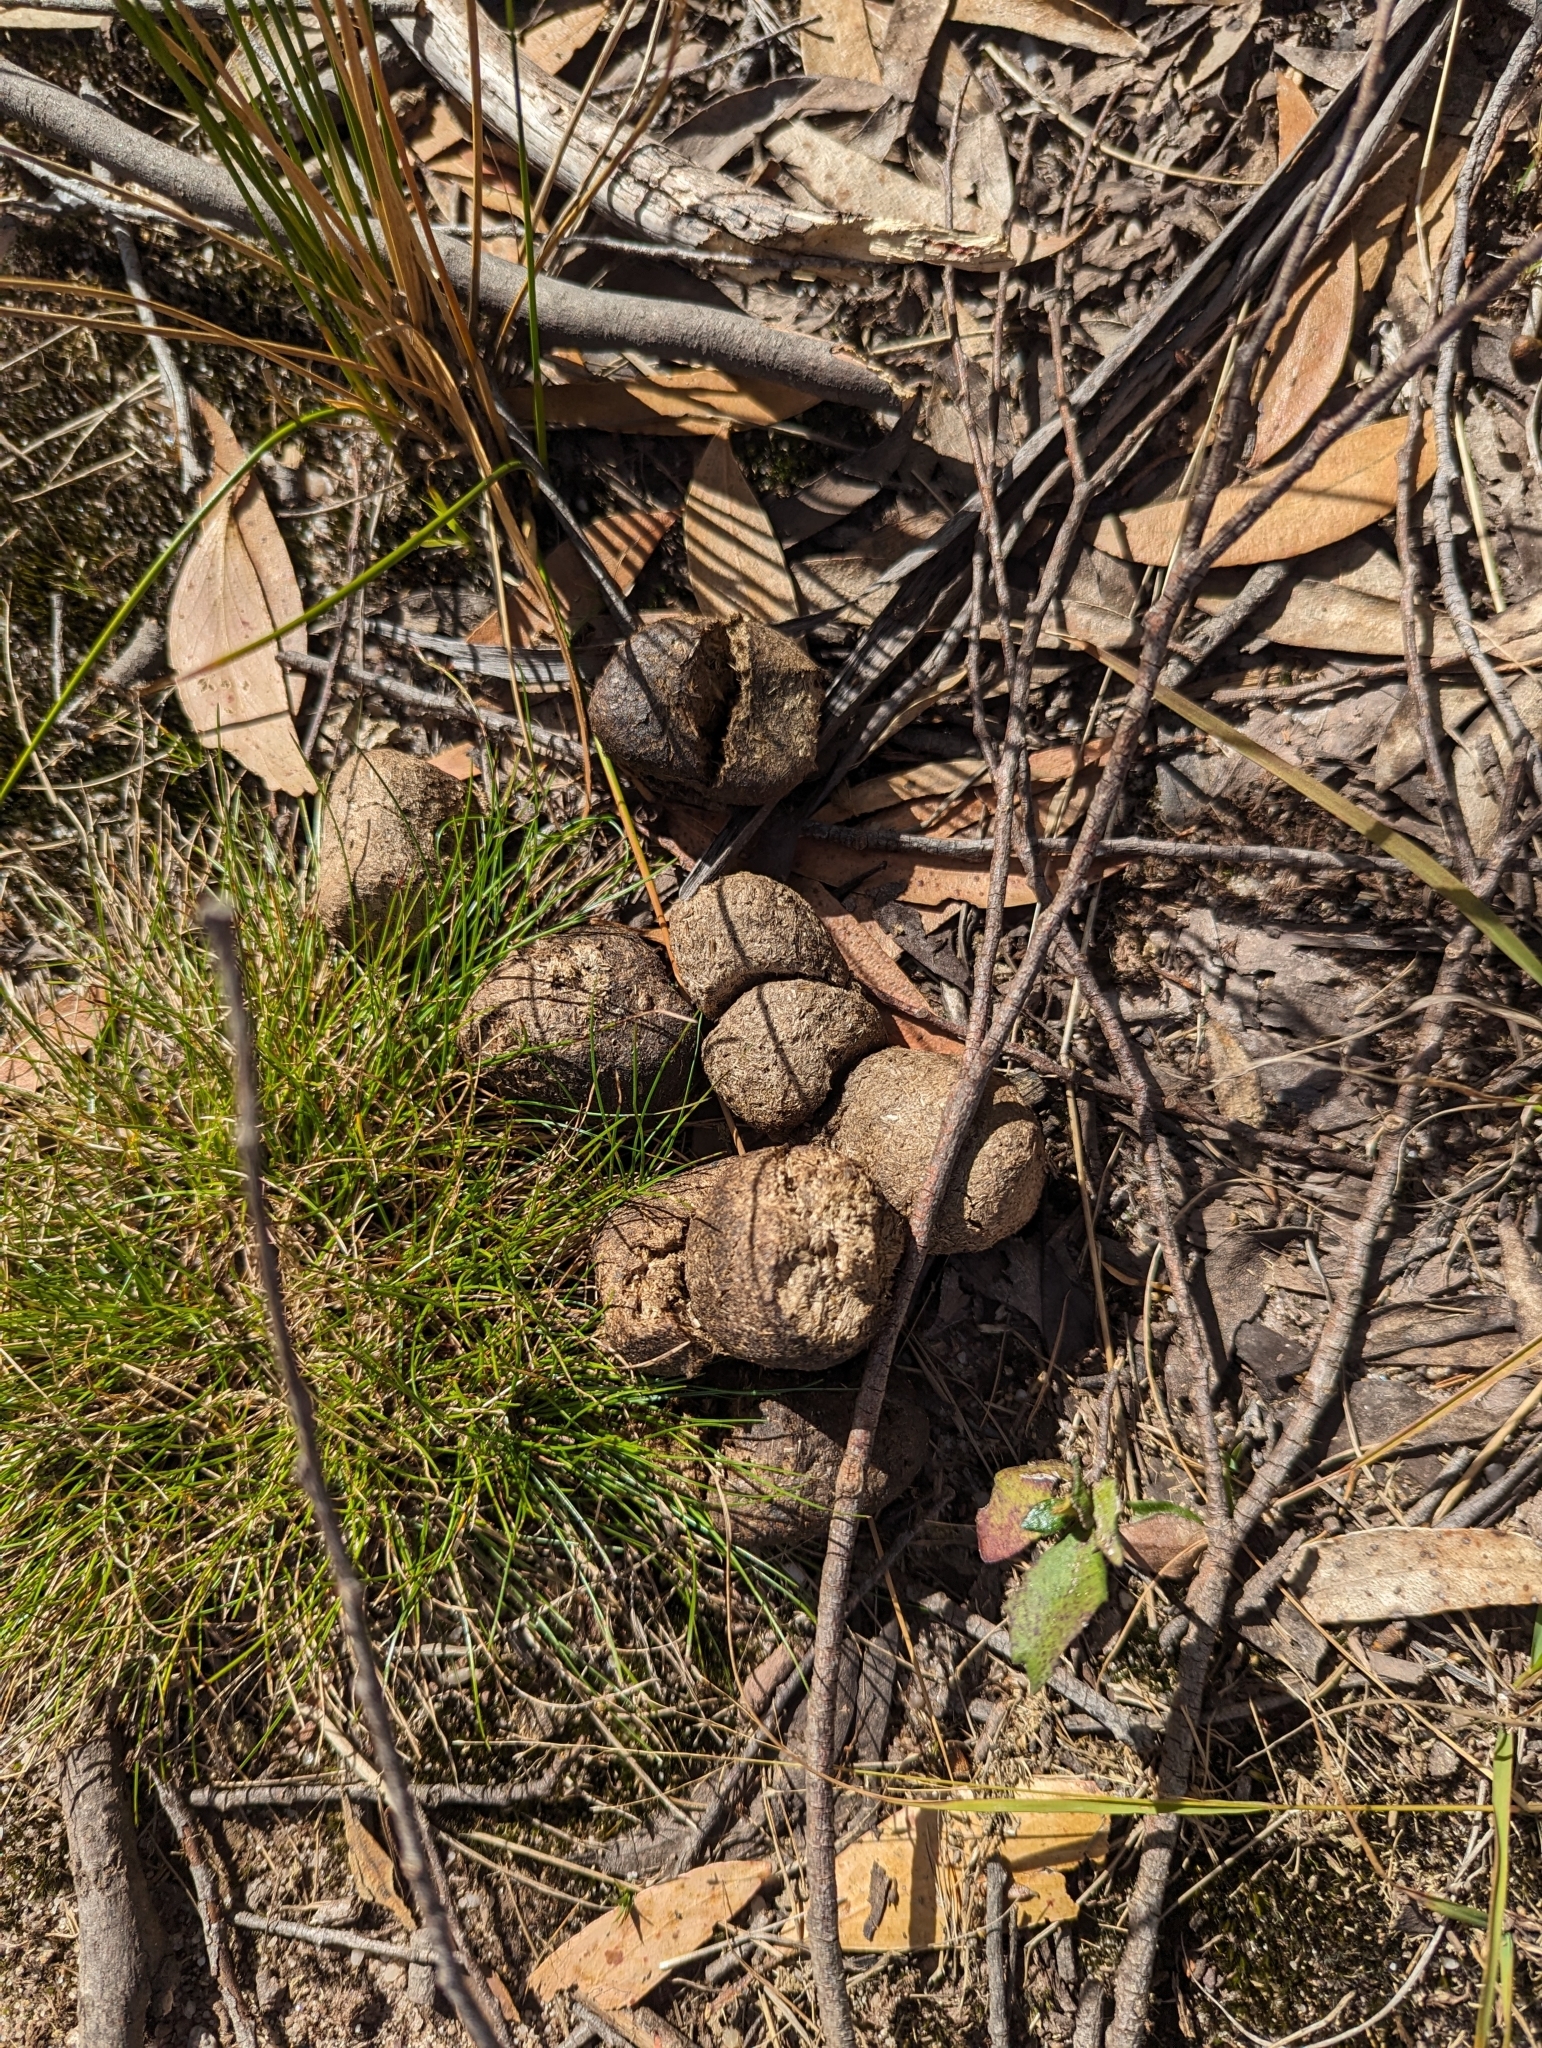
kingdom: Animalia
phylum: Chordata
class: Mammalia
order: Diprotodontia
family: Vombatidae
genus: Vombatus
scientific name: Vombatus ursinus
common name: Common wombat
